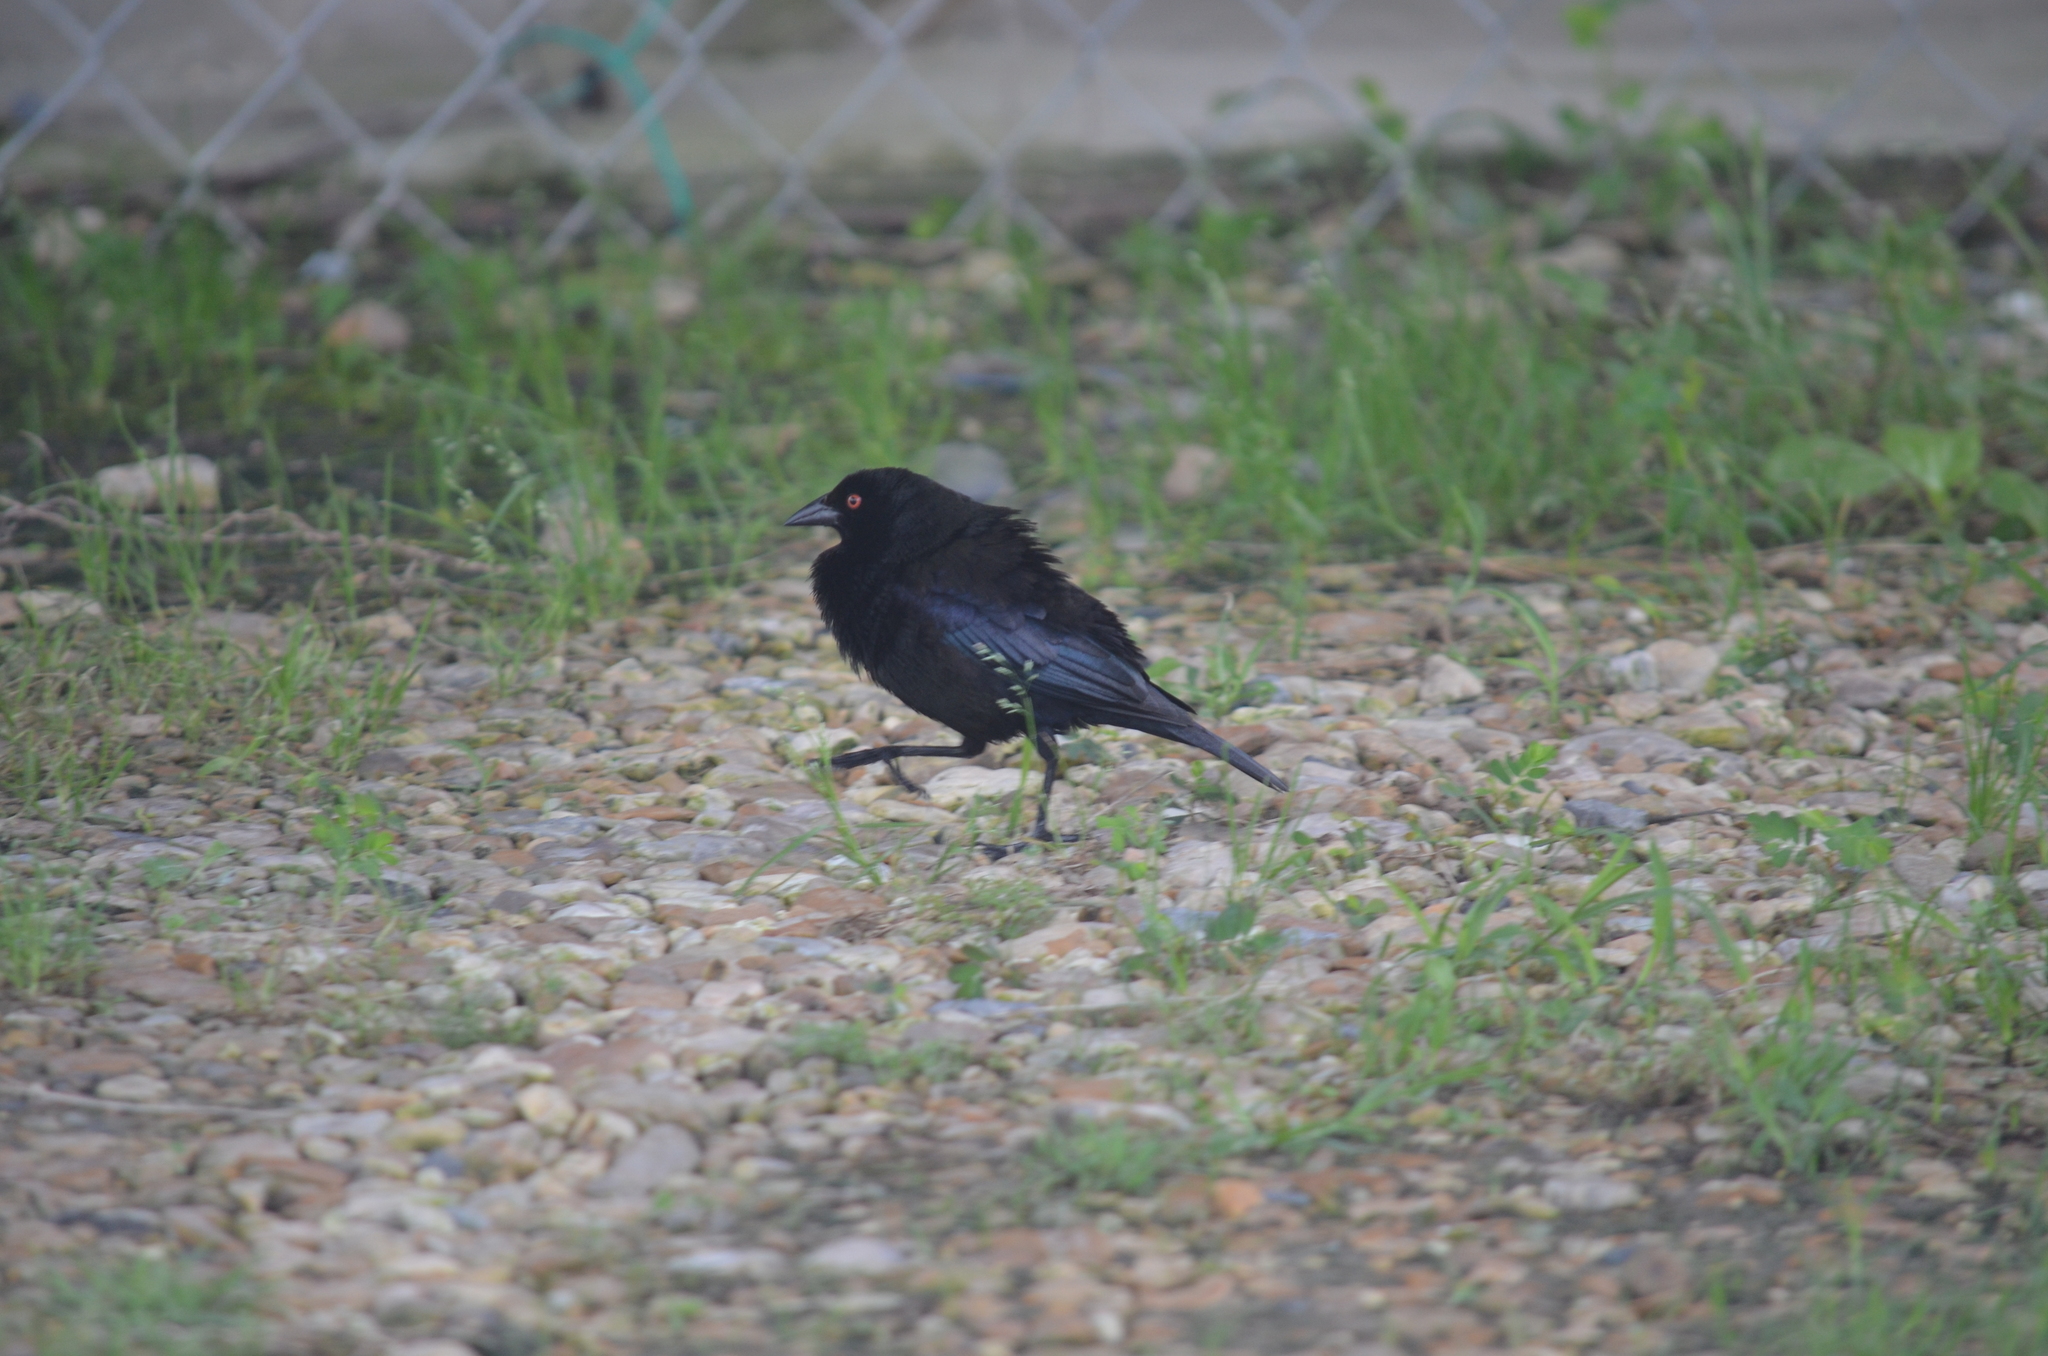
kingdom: Animalia
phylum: Chordata
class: Aves
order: Passeriformes
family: Icteridae
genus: Molothrus
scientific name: Molothrus aeneus
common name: Bronzed cowbird
